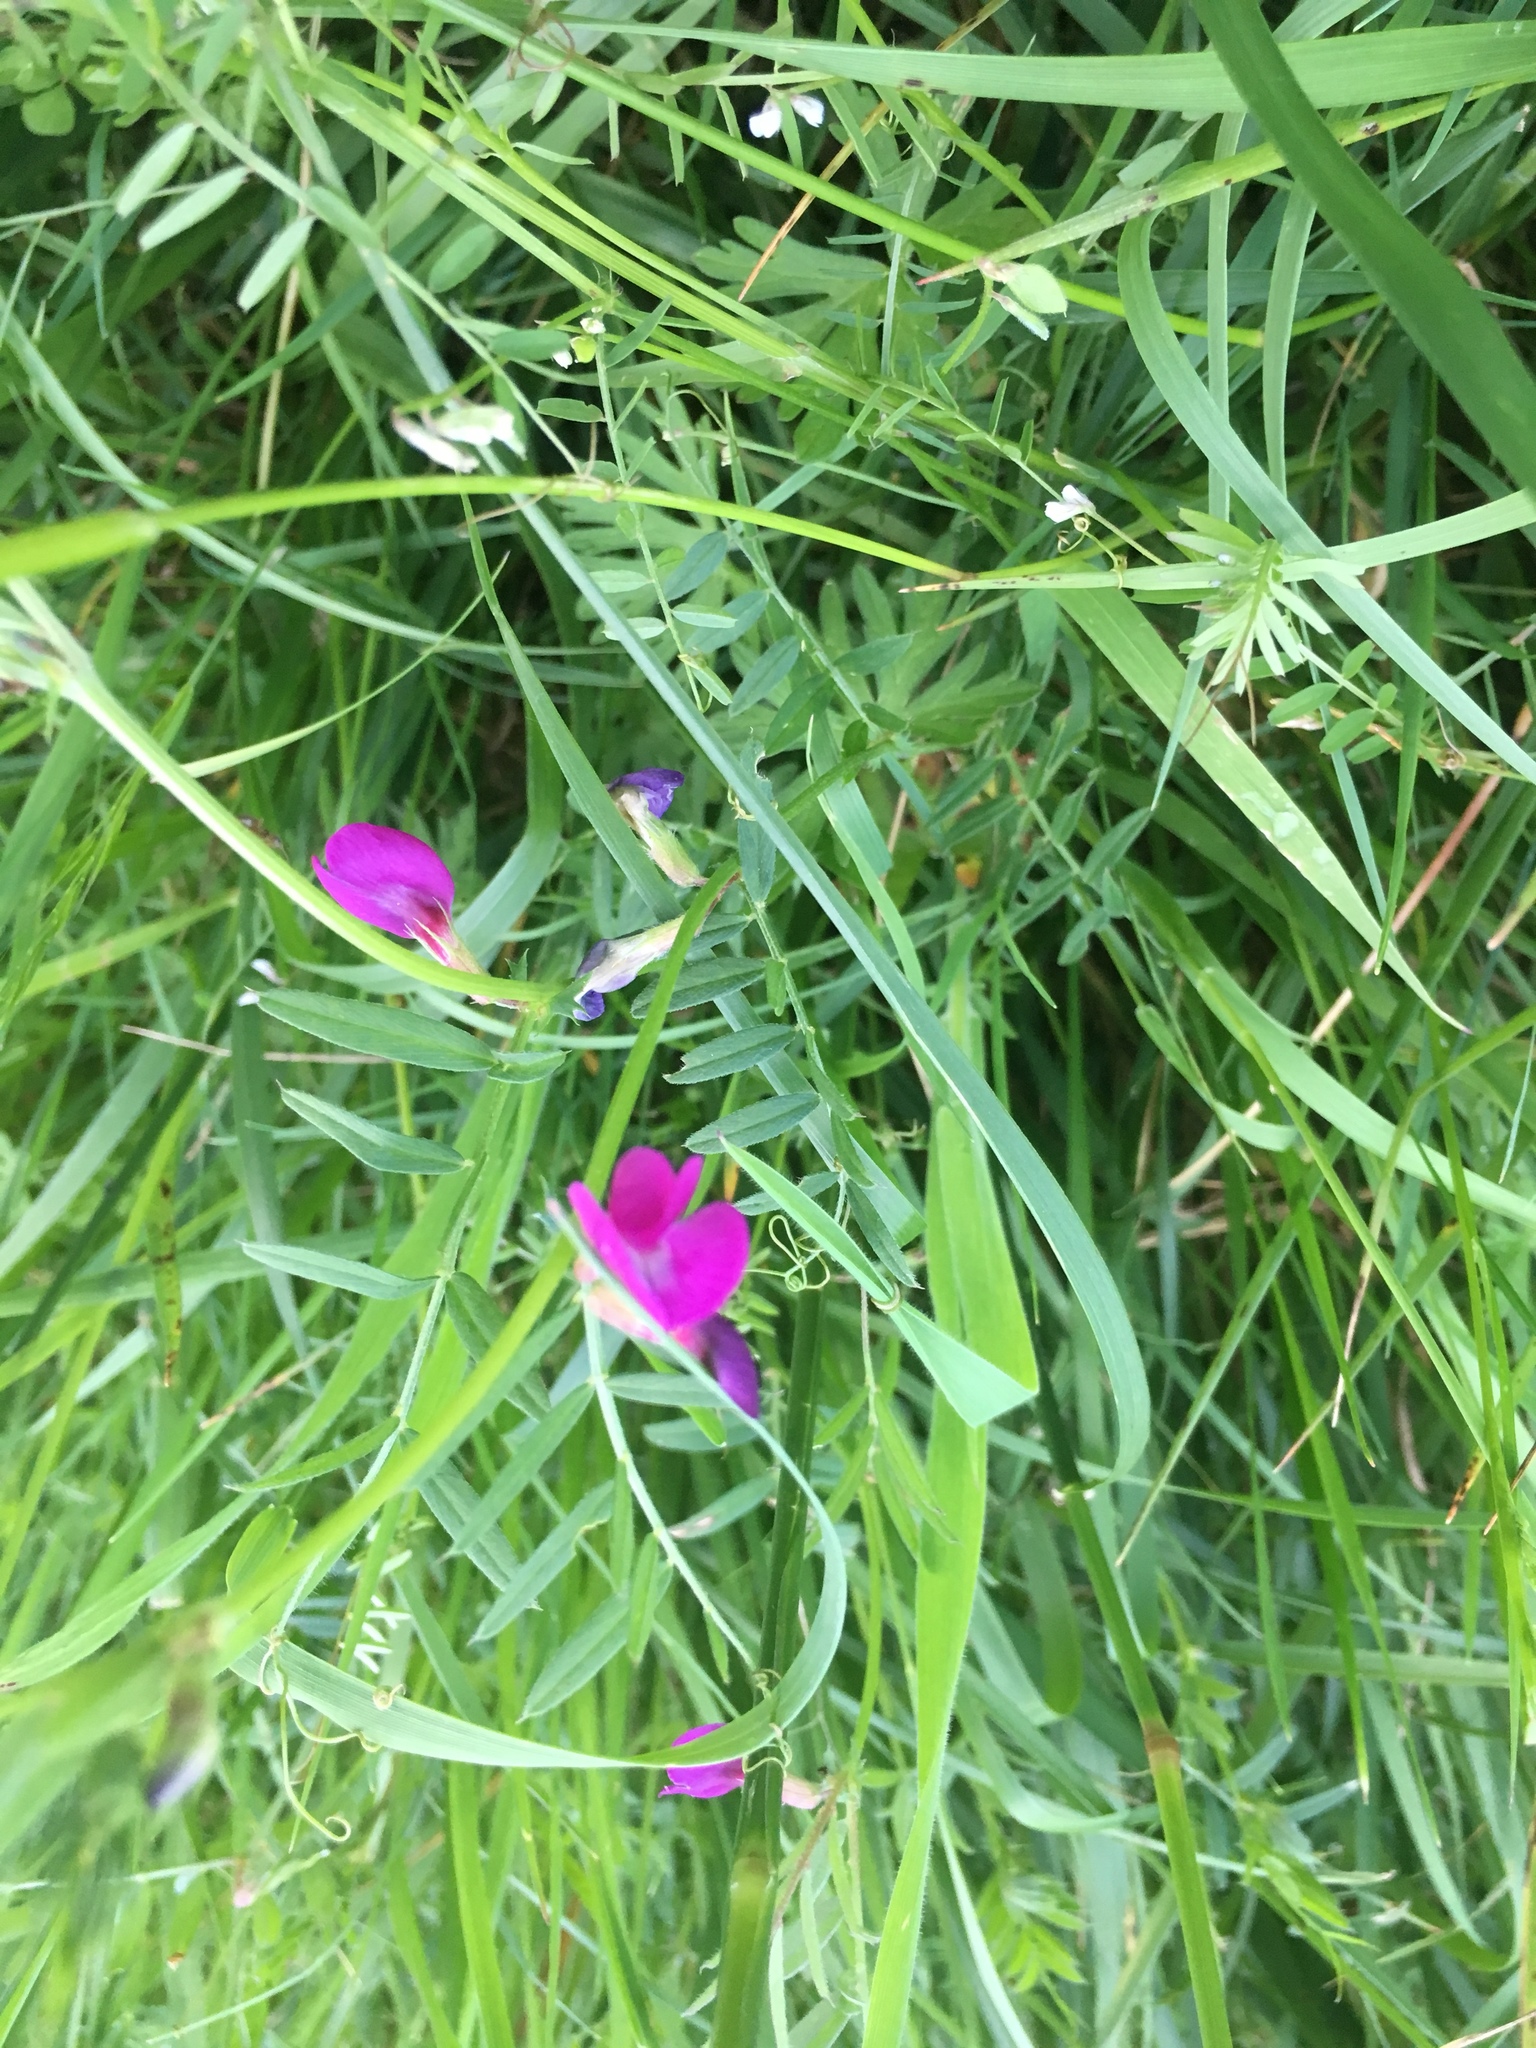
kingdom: Plantae
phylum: Tracheophyta
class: Magnoliopsida
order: Fabales
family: Fabaceae
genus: Vicia
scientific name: Vicia sativa
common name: Garden vetch
